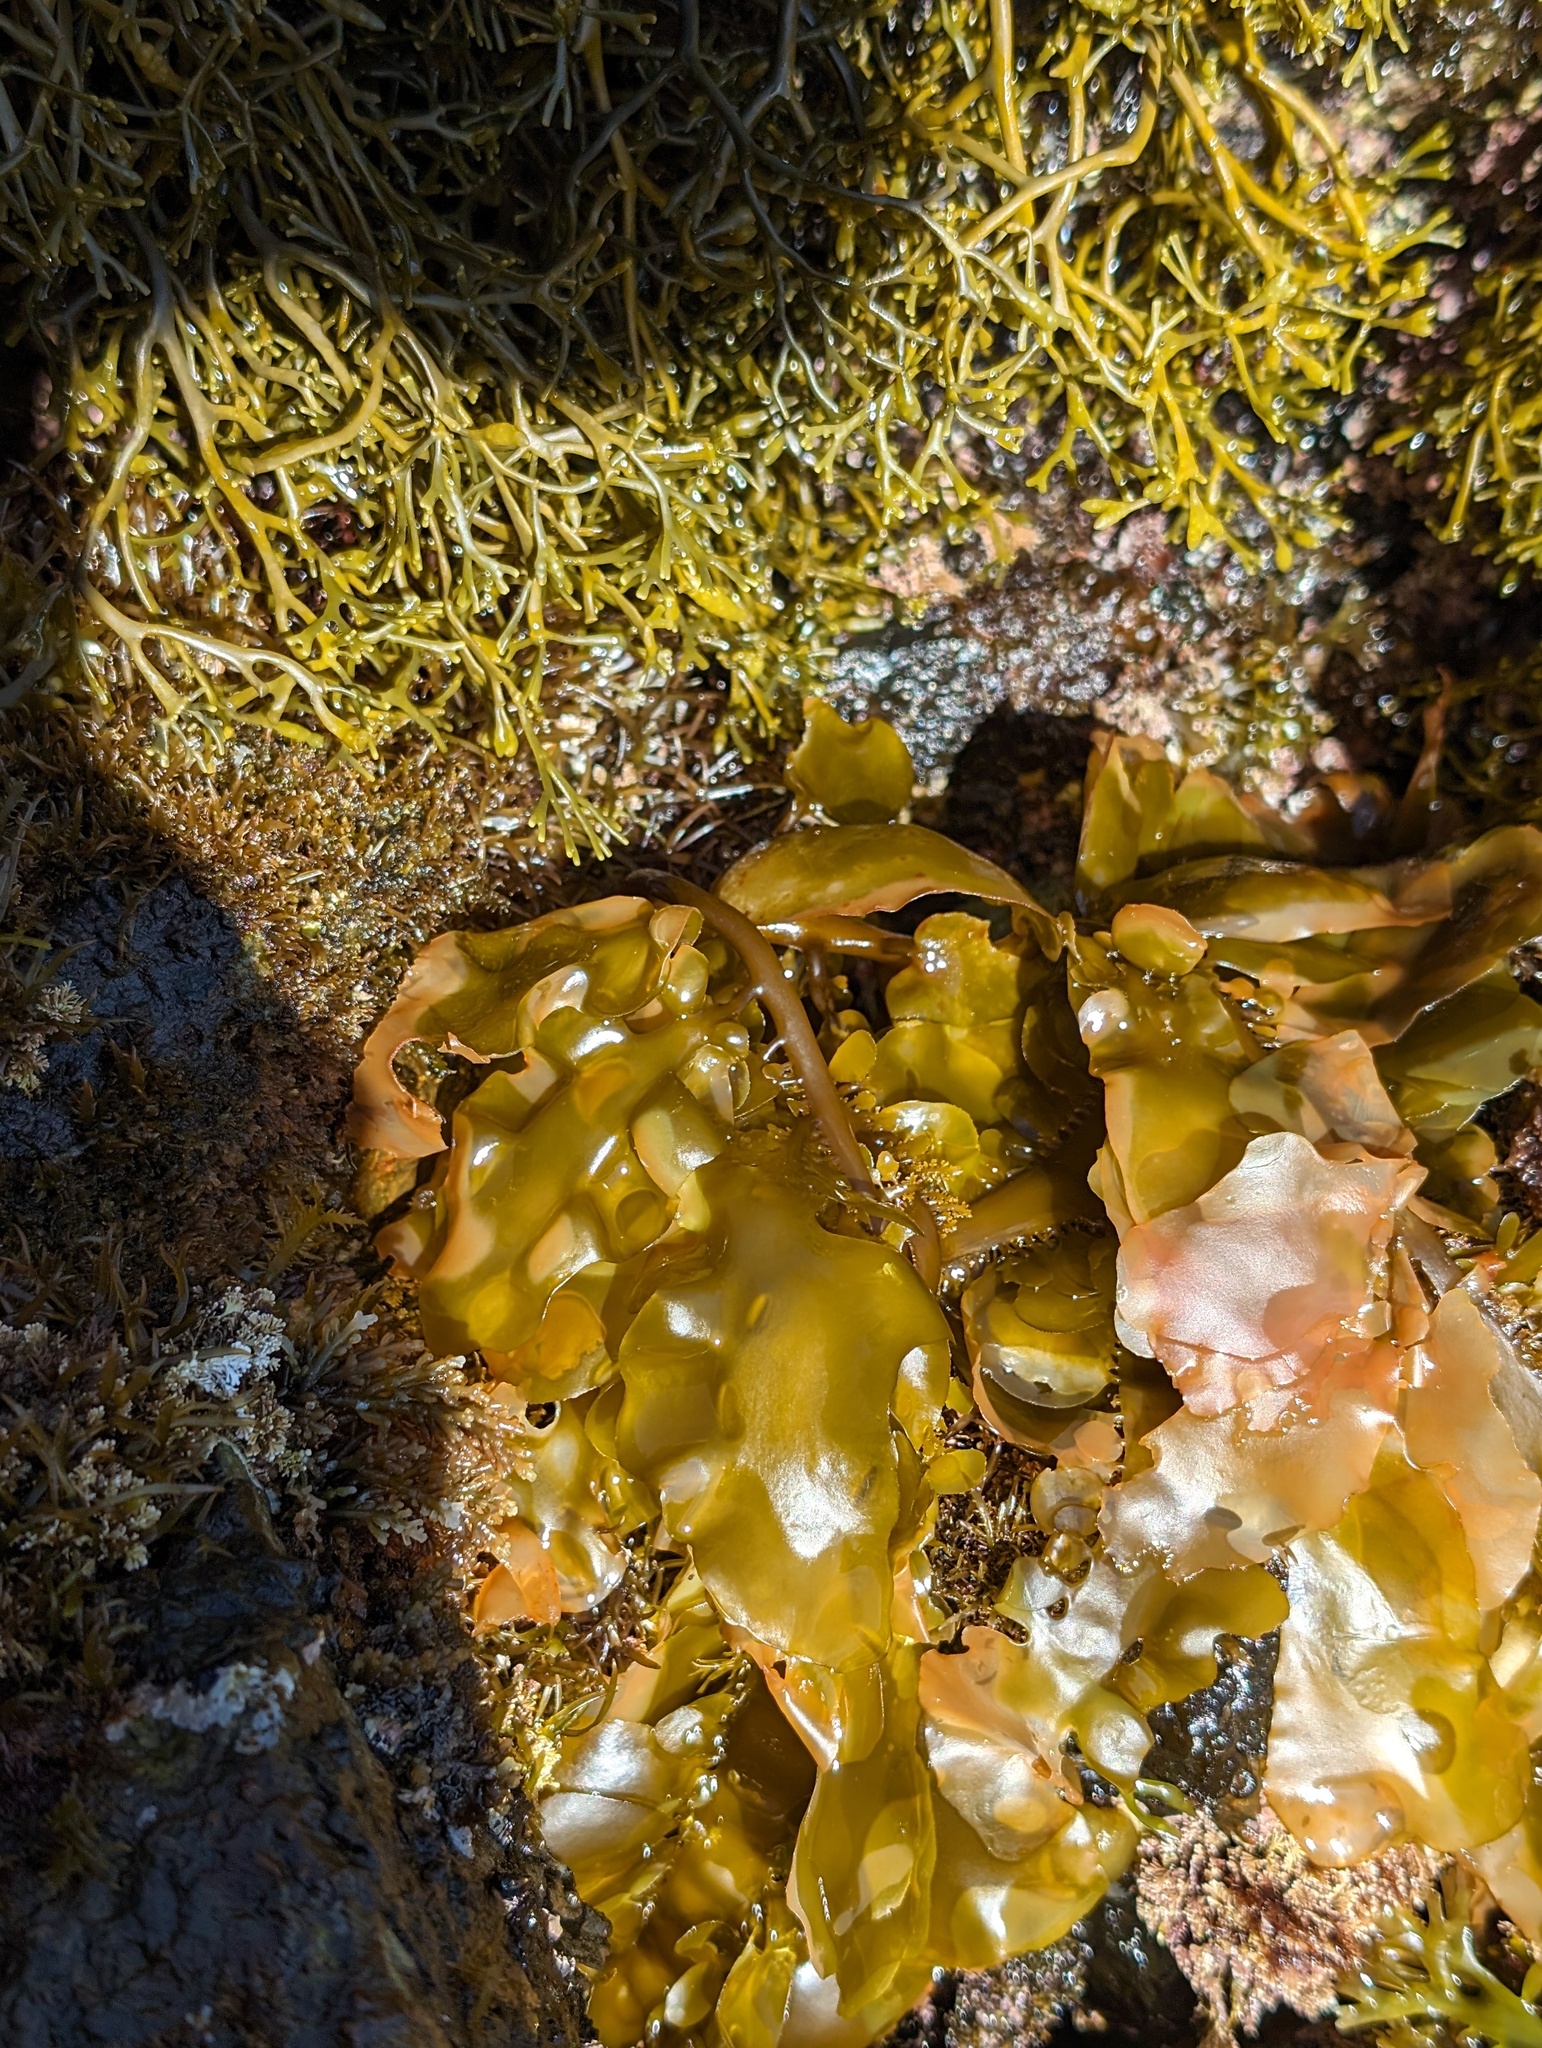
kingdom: Chromista
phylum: Ochrophyta
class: Phaeophyceae
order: Laminariales
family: Lessoniaceae
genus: Egregia
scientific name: Egregia menziesii
